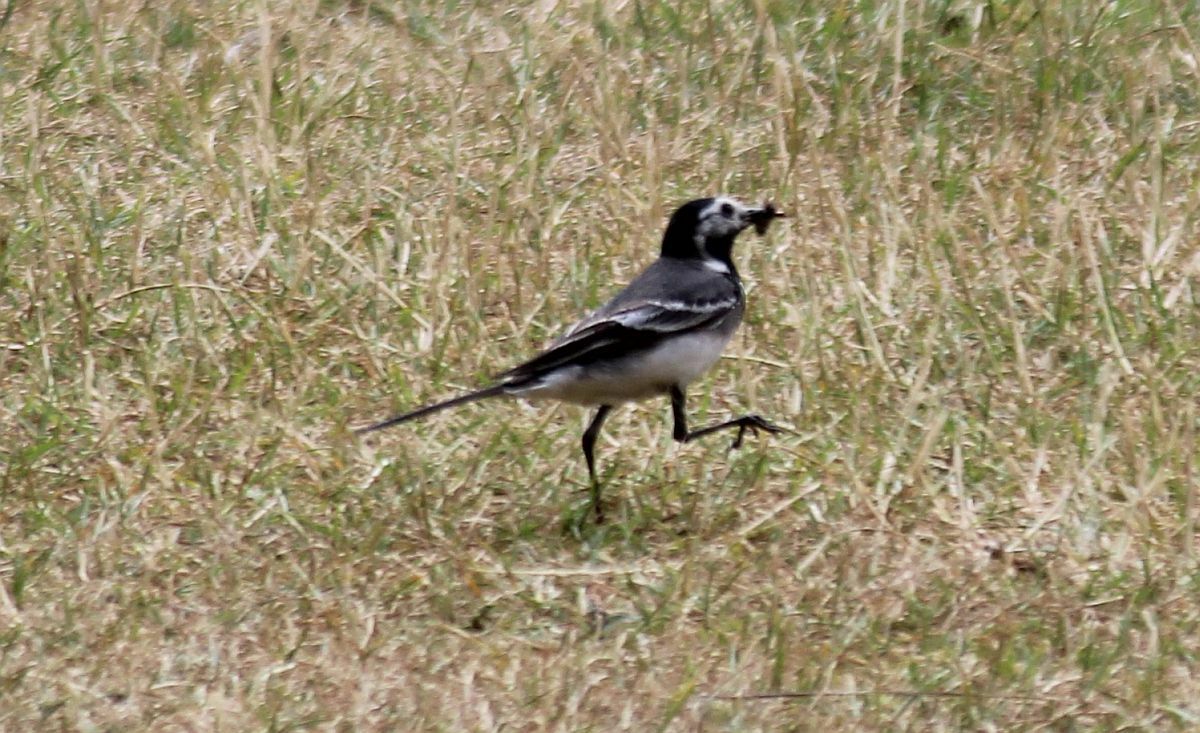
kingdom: Animalia
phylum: Chordata
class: Aves
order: Passeriformes
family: Motacillidae
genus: Motacilla
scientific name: Motacilla alba
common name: White wagtail
